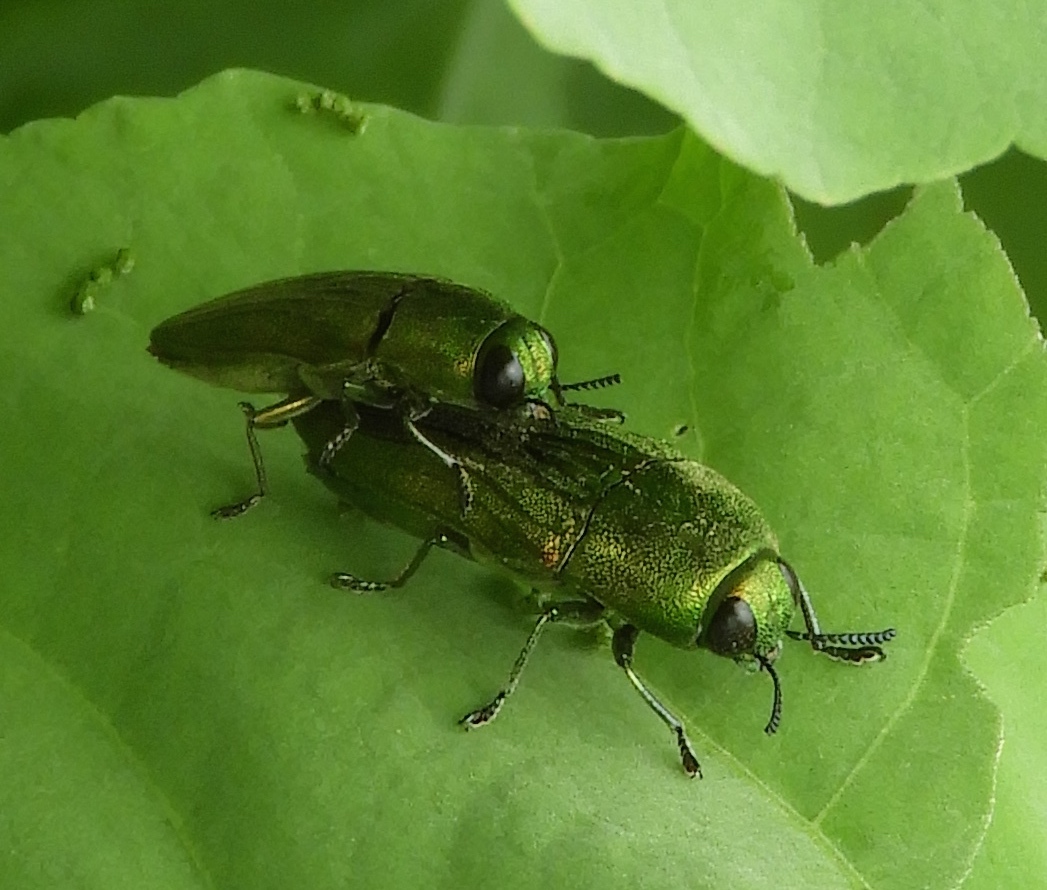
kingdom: Animalia
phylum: Arthropoda
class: Insecta
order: Coleoptera
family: Buprestidae
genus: Agaeocera
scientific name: Agaeocera scintillans
